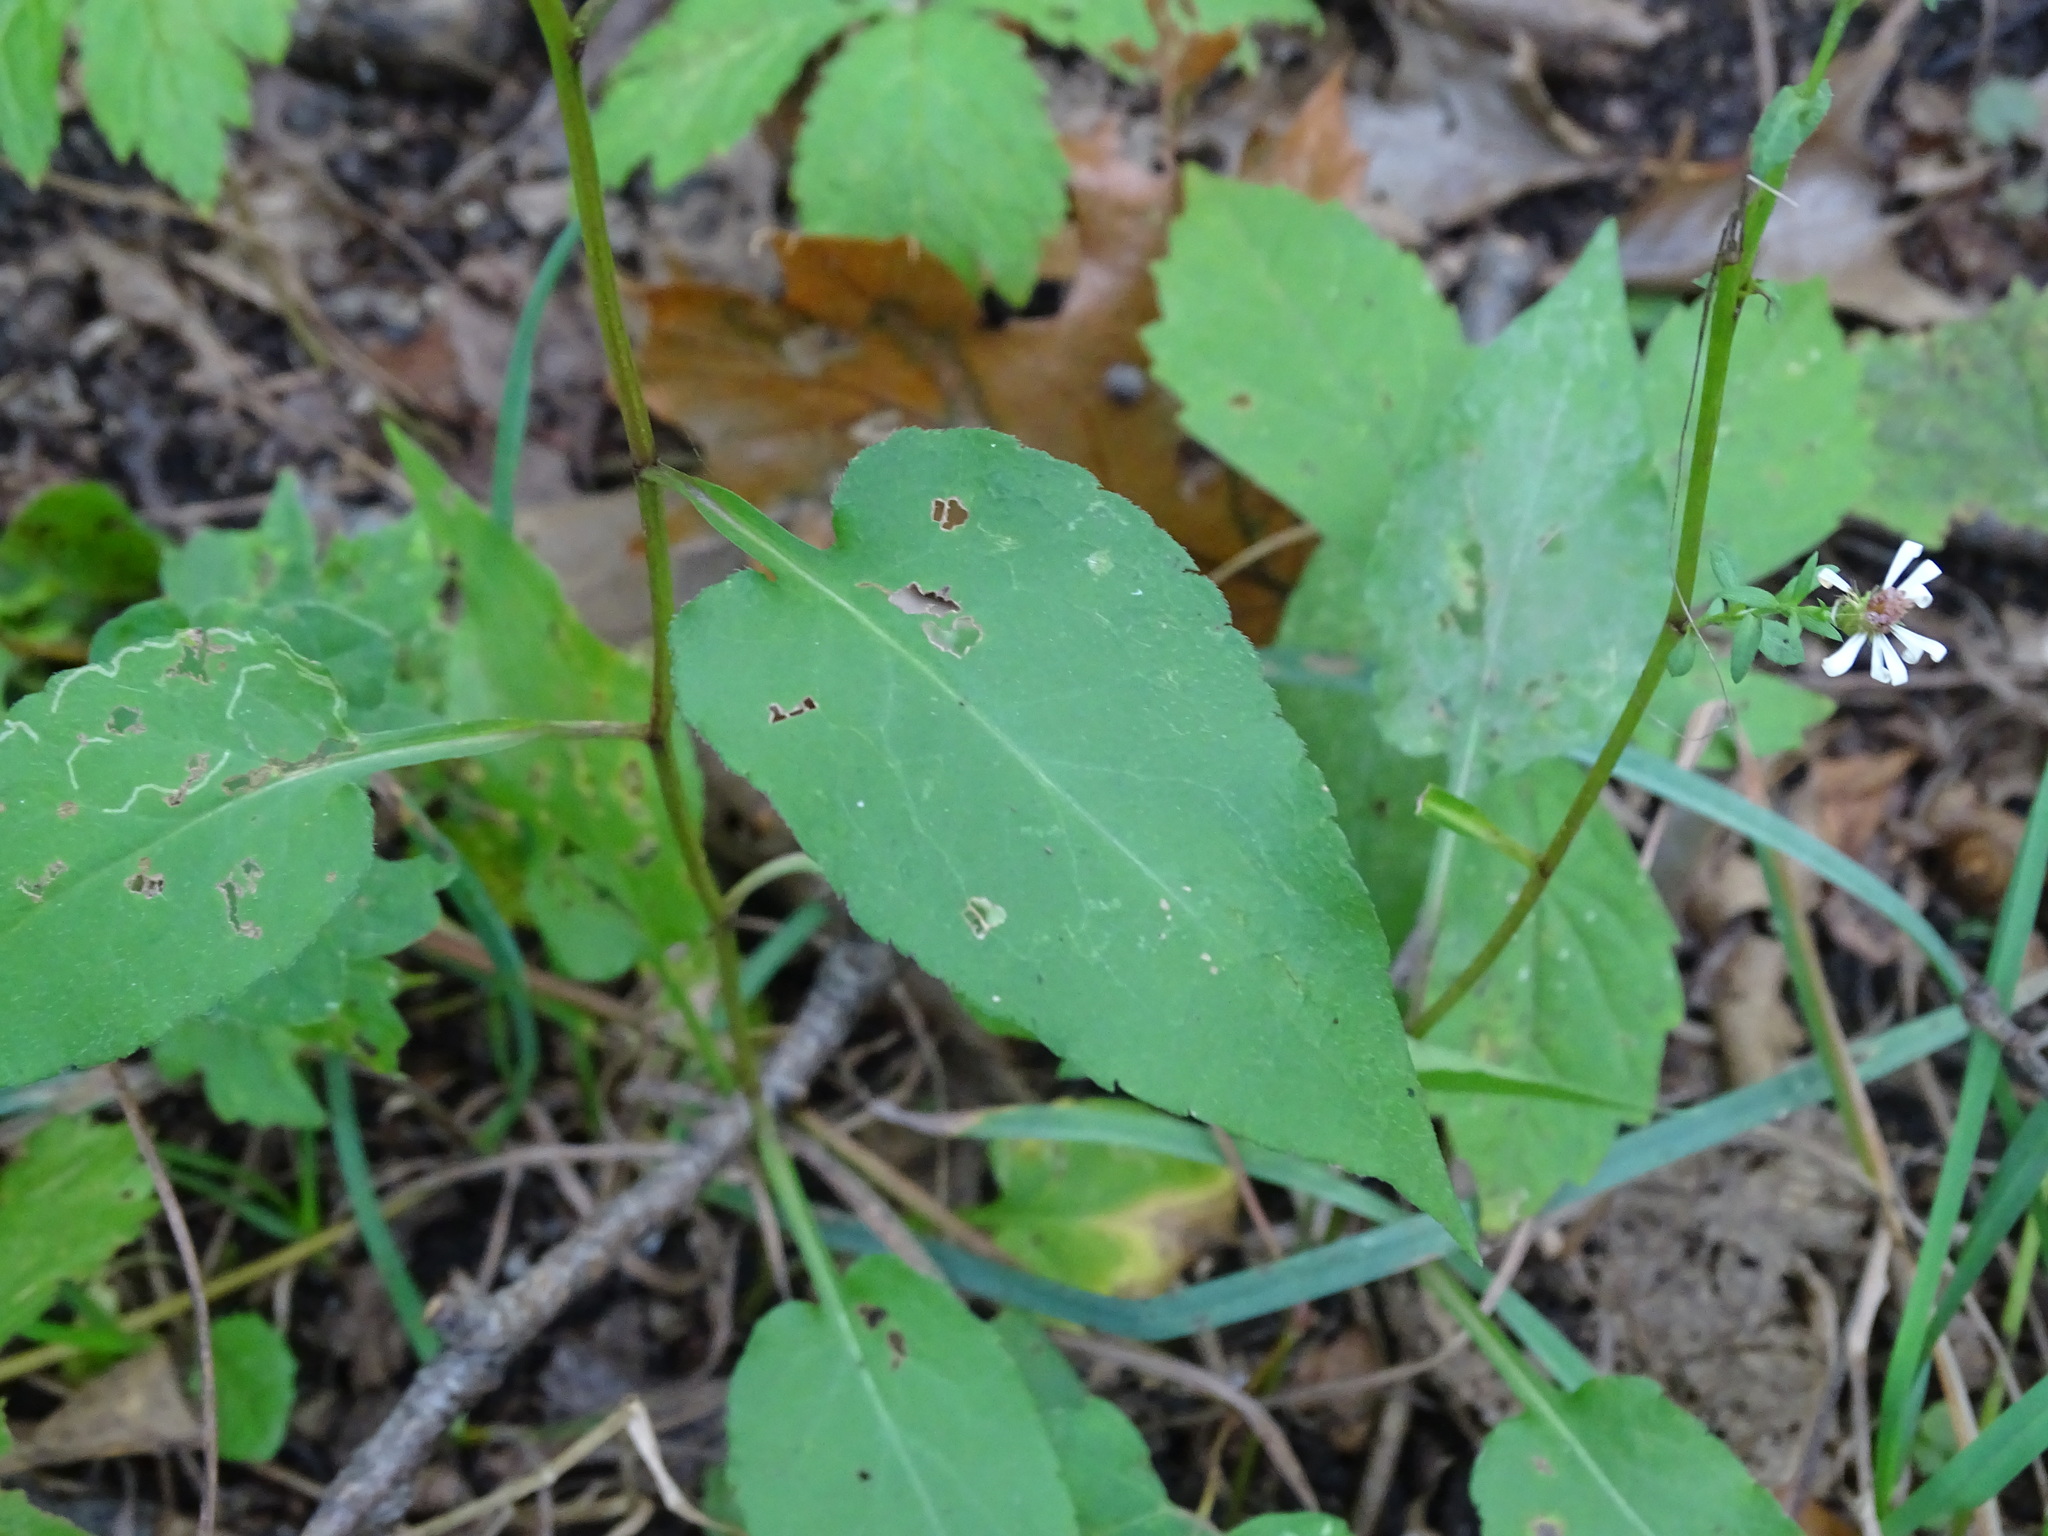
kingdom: Plantae
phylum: Tracheophyta
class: Magnoliopsida
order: Asterales
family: Asteraceae
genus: Symphyotrichum
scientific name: Symphyotrichum urophyllum
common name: Arrow-leaved aster
